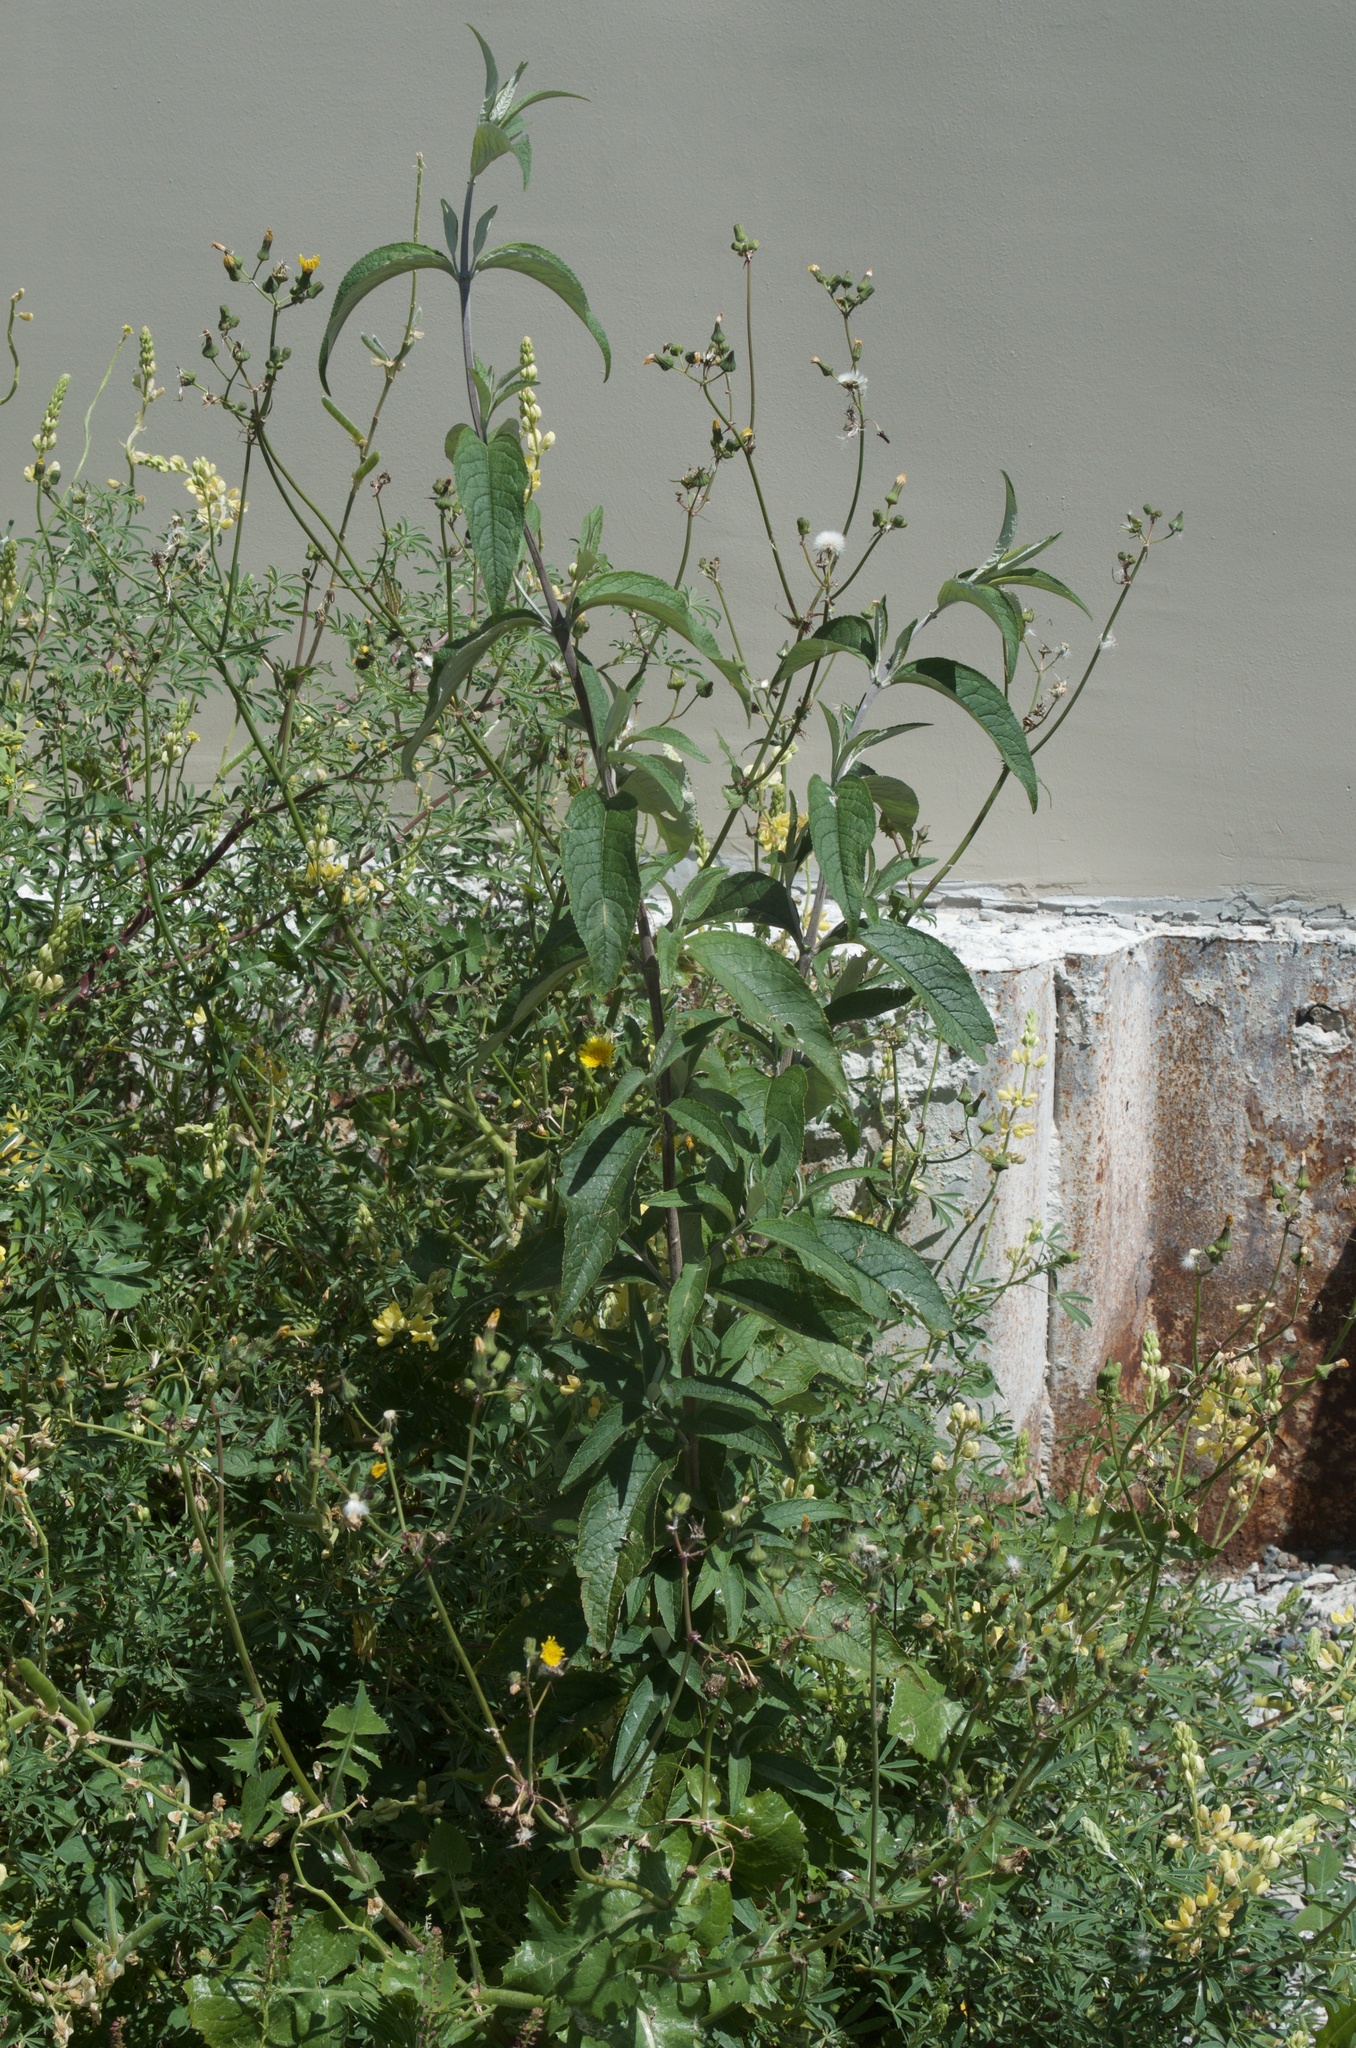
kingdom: Plantae
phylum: Tracheophyta
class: Magnoliopsida
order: Lamiales
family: Scrophulariaceae
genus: Buddleja
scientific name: Buddleja davidii
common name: Butterfly-bush
